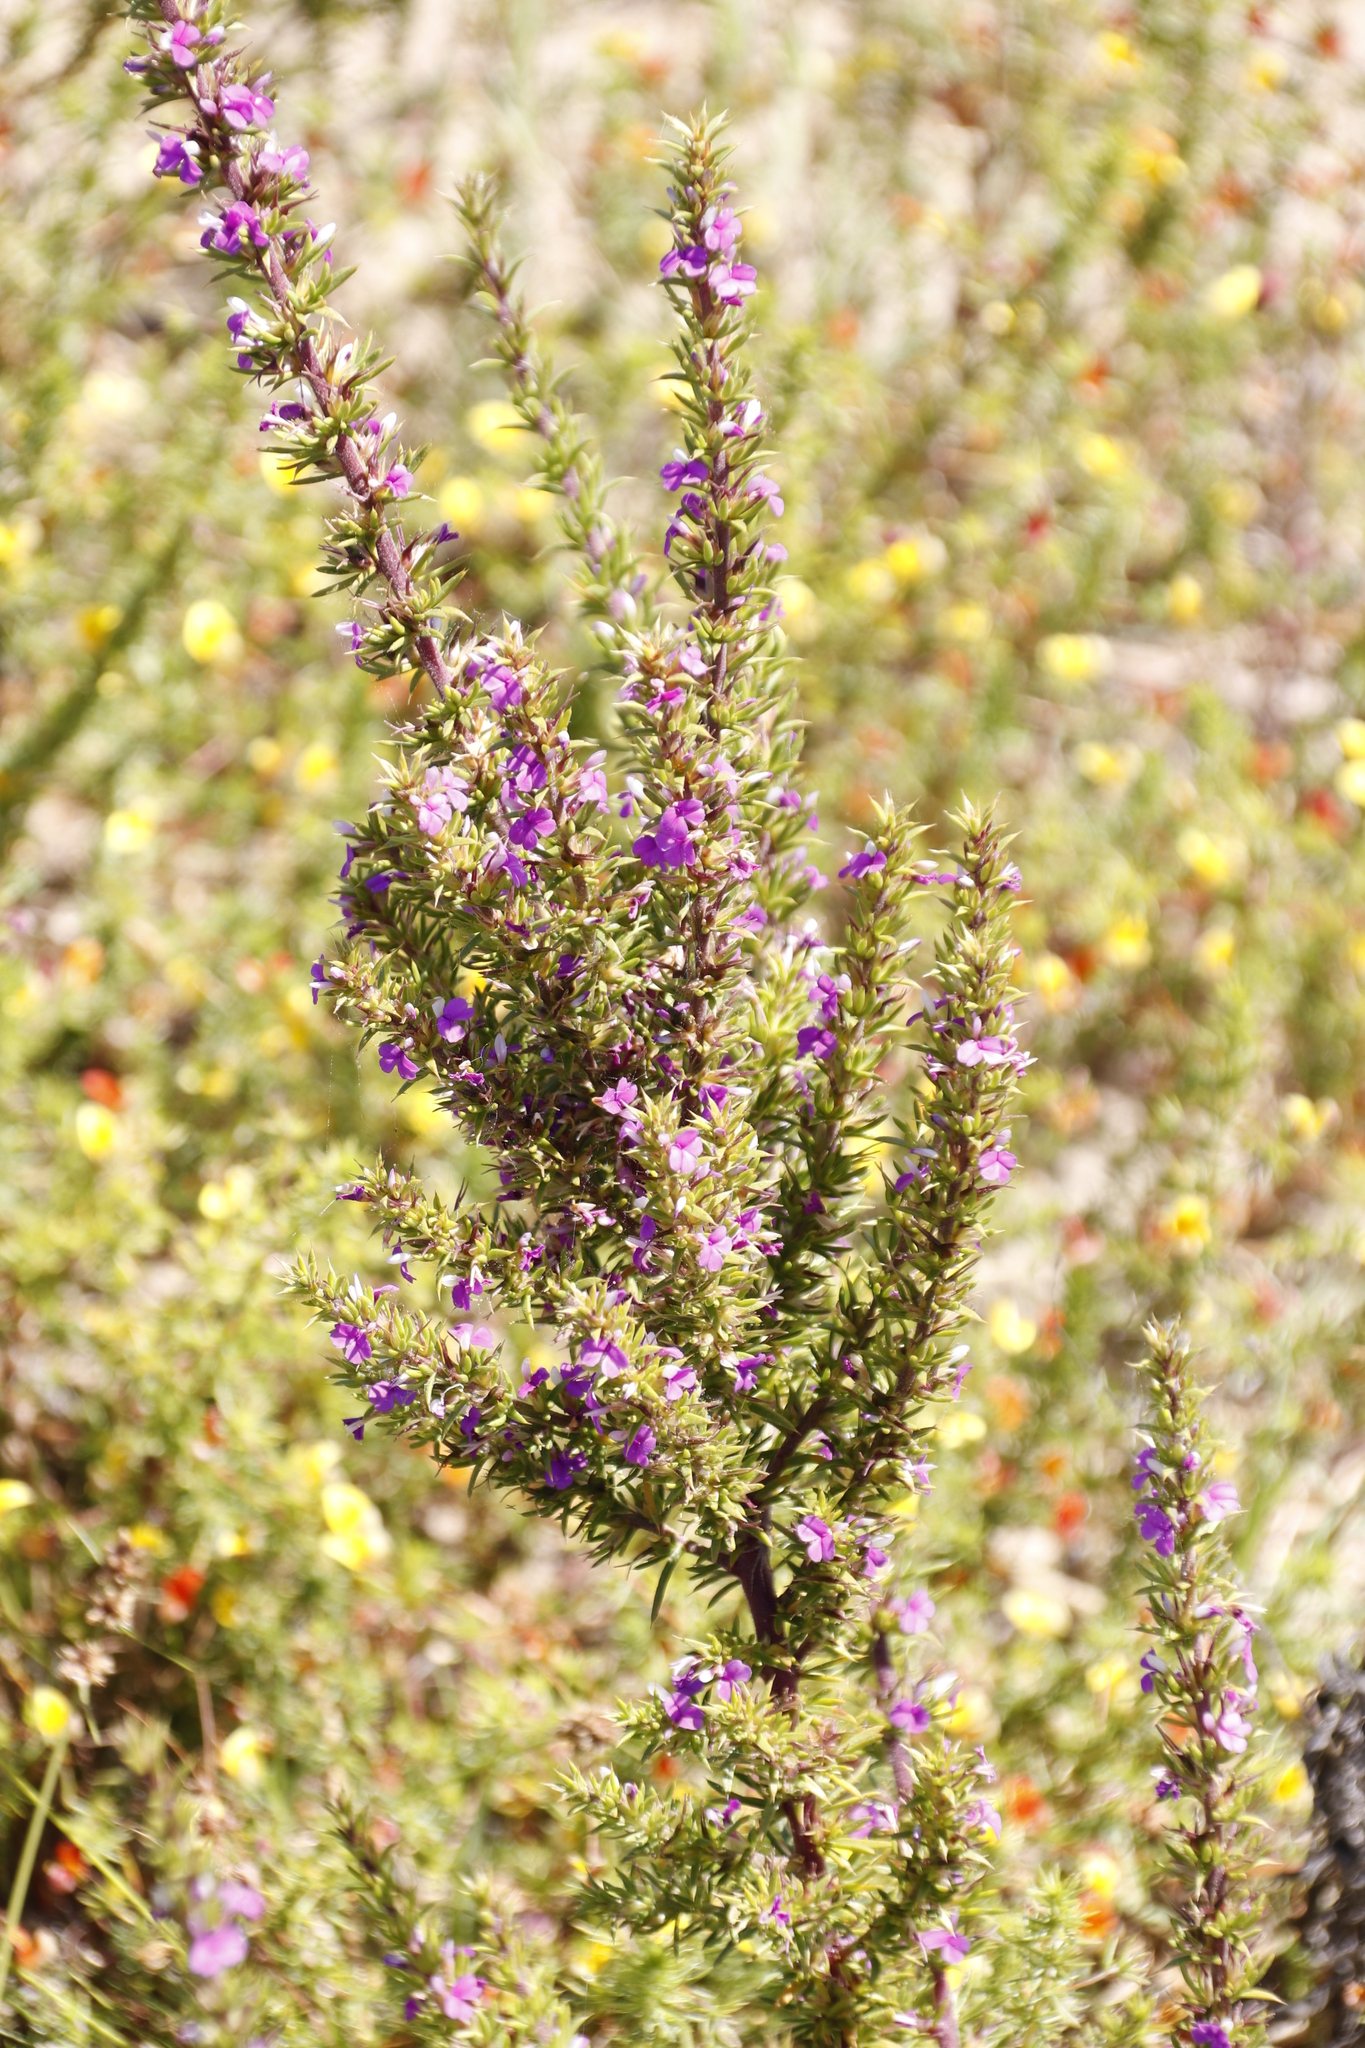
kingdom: Plantae
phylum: Tracheophyta
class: Magnoliopsida
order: Fabales
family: Polygalaceae
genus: Muraltia
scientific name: Muraltia heisteria
